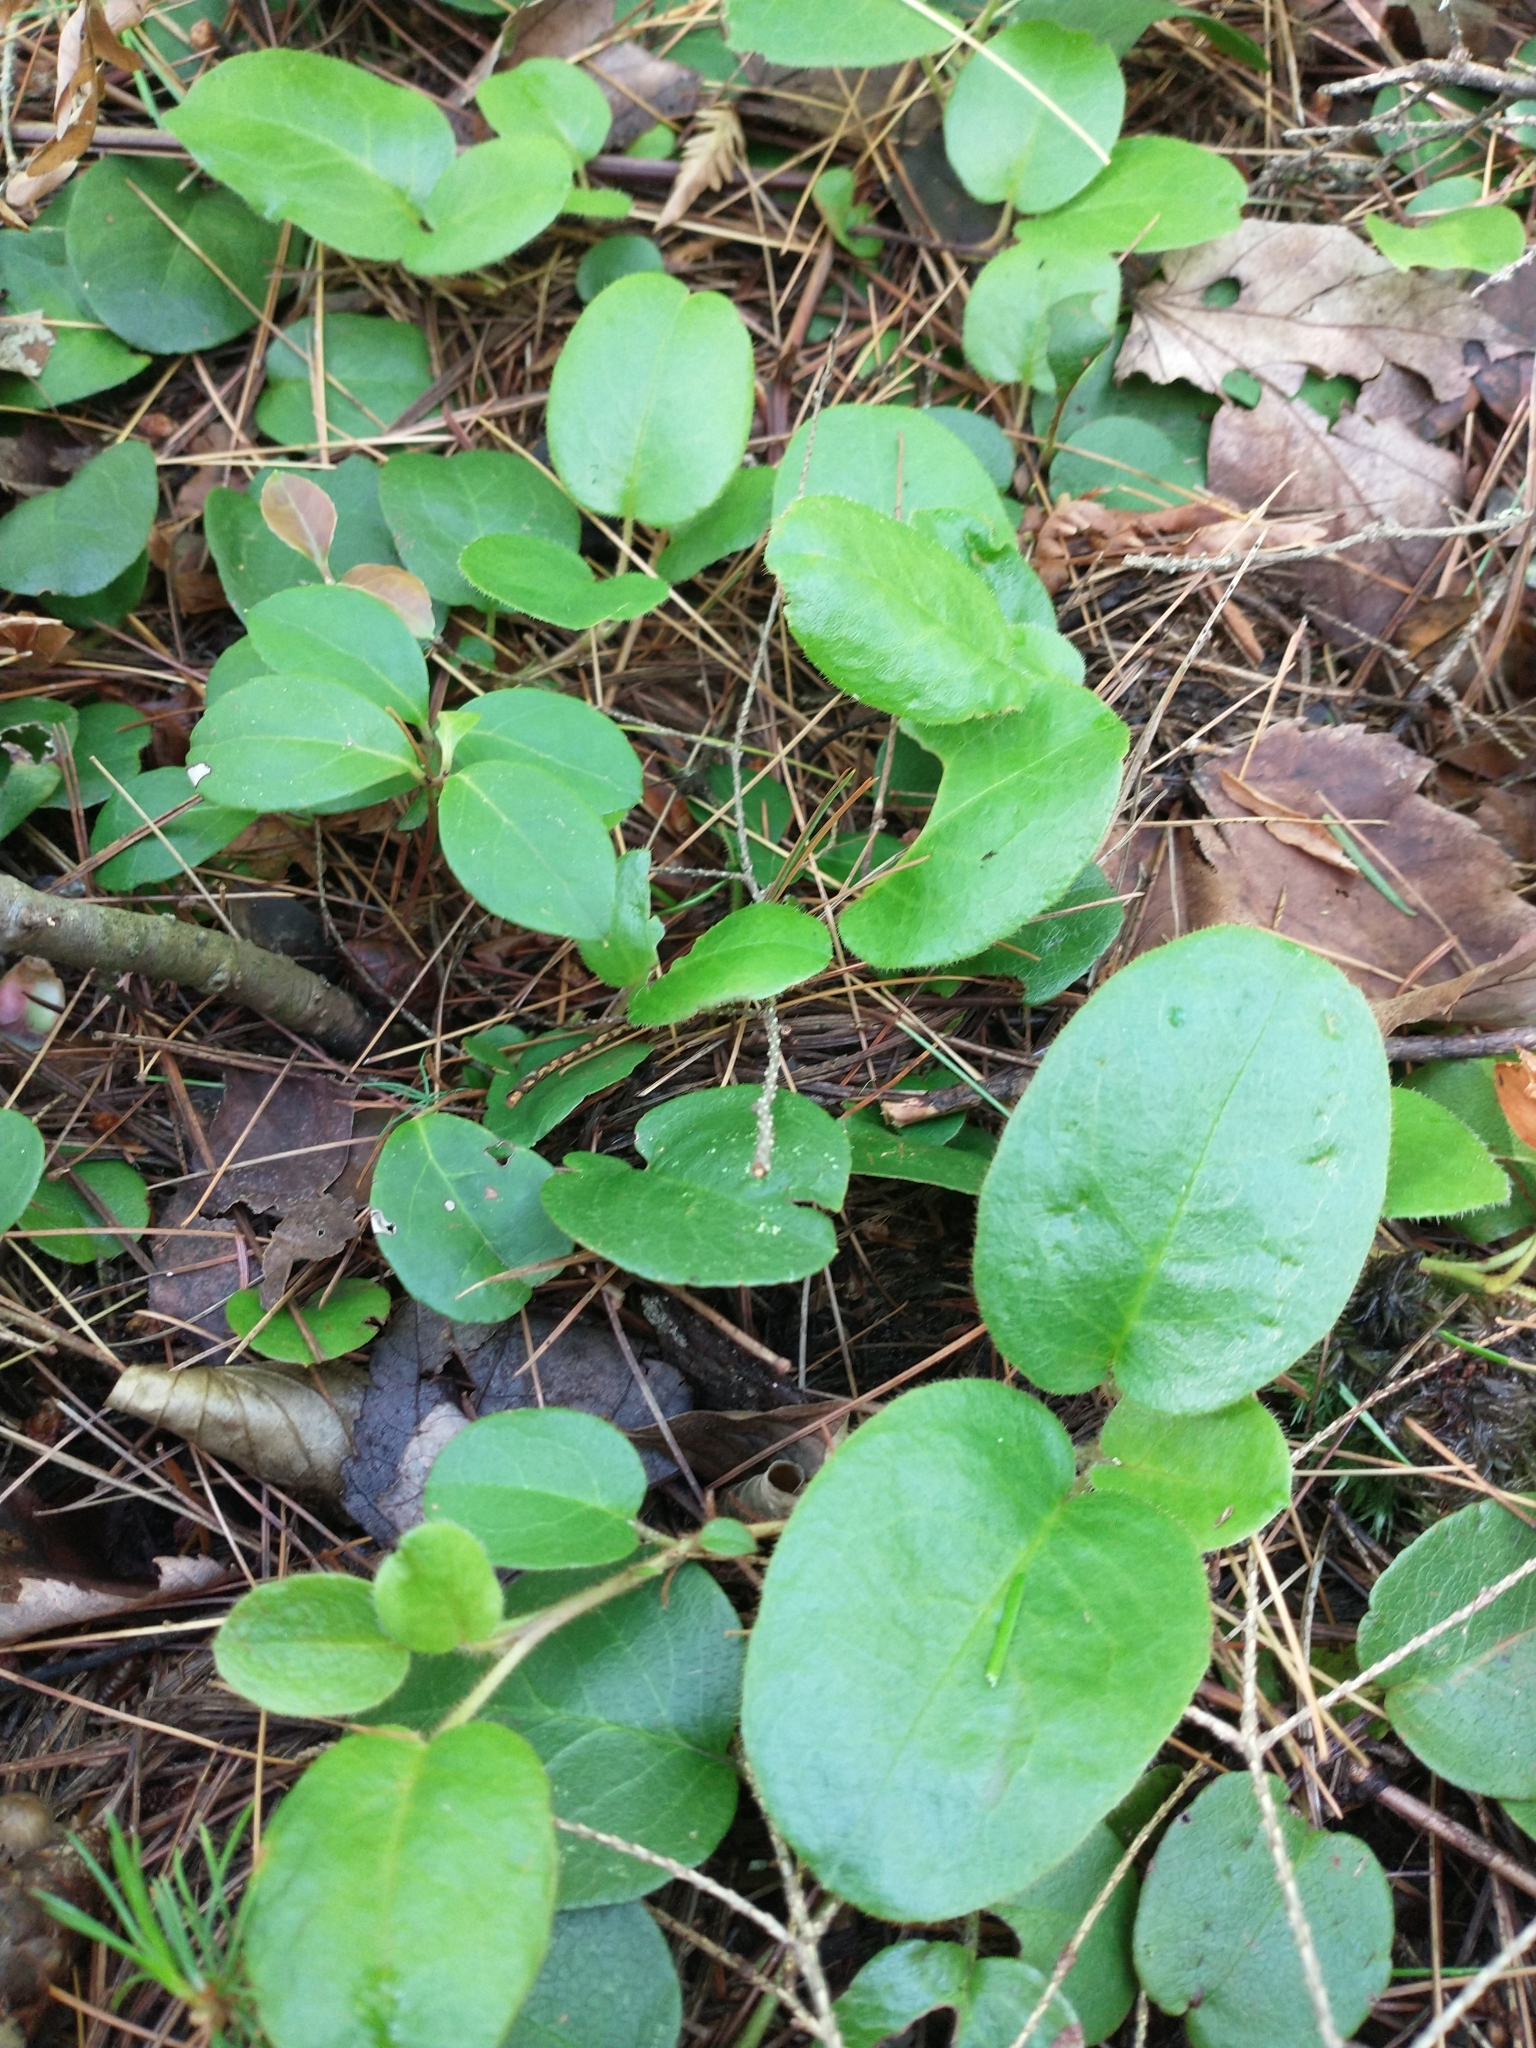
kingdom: Plantae
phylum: Tracheophyta
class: Magnoliopsida
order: Ericales
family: Ericaceae
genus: Epigaea
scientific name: Epigaea repens
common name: Gravelroot
